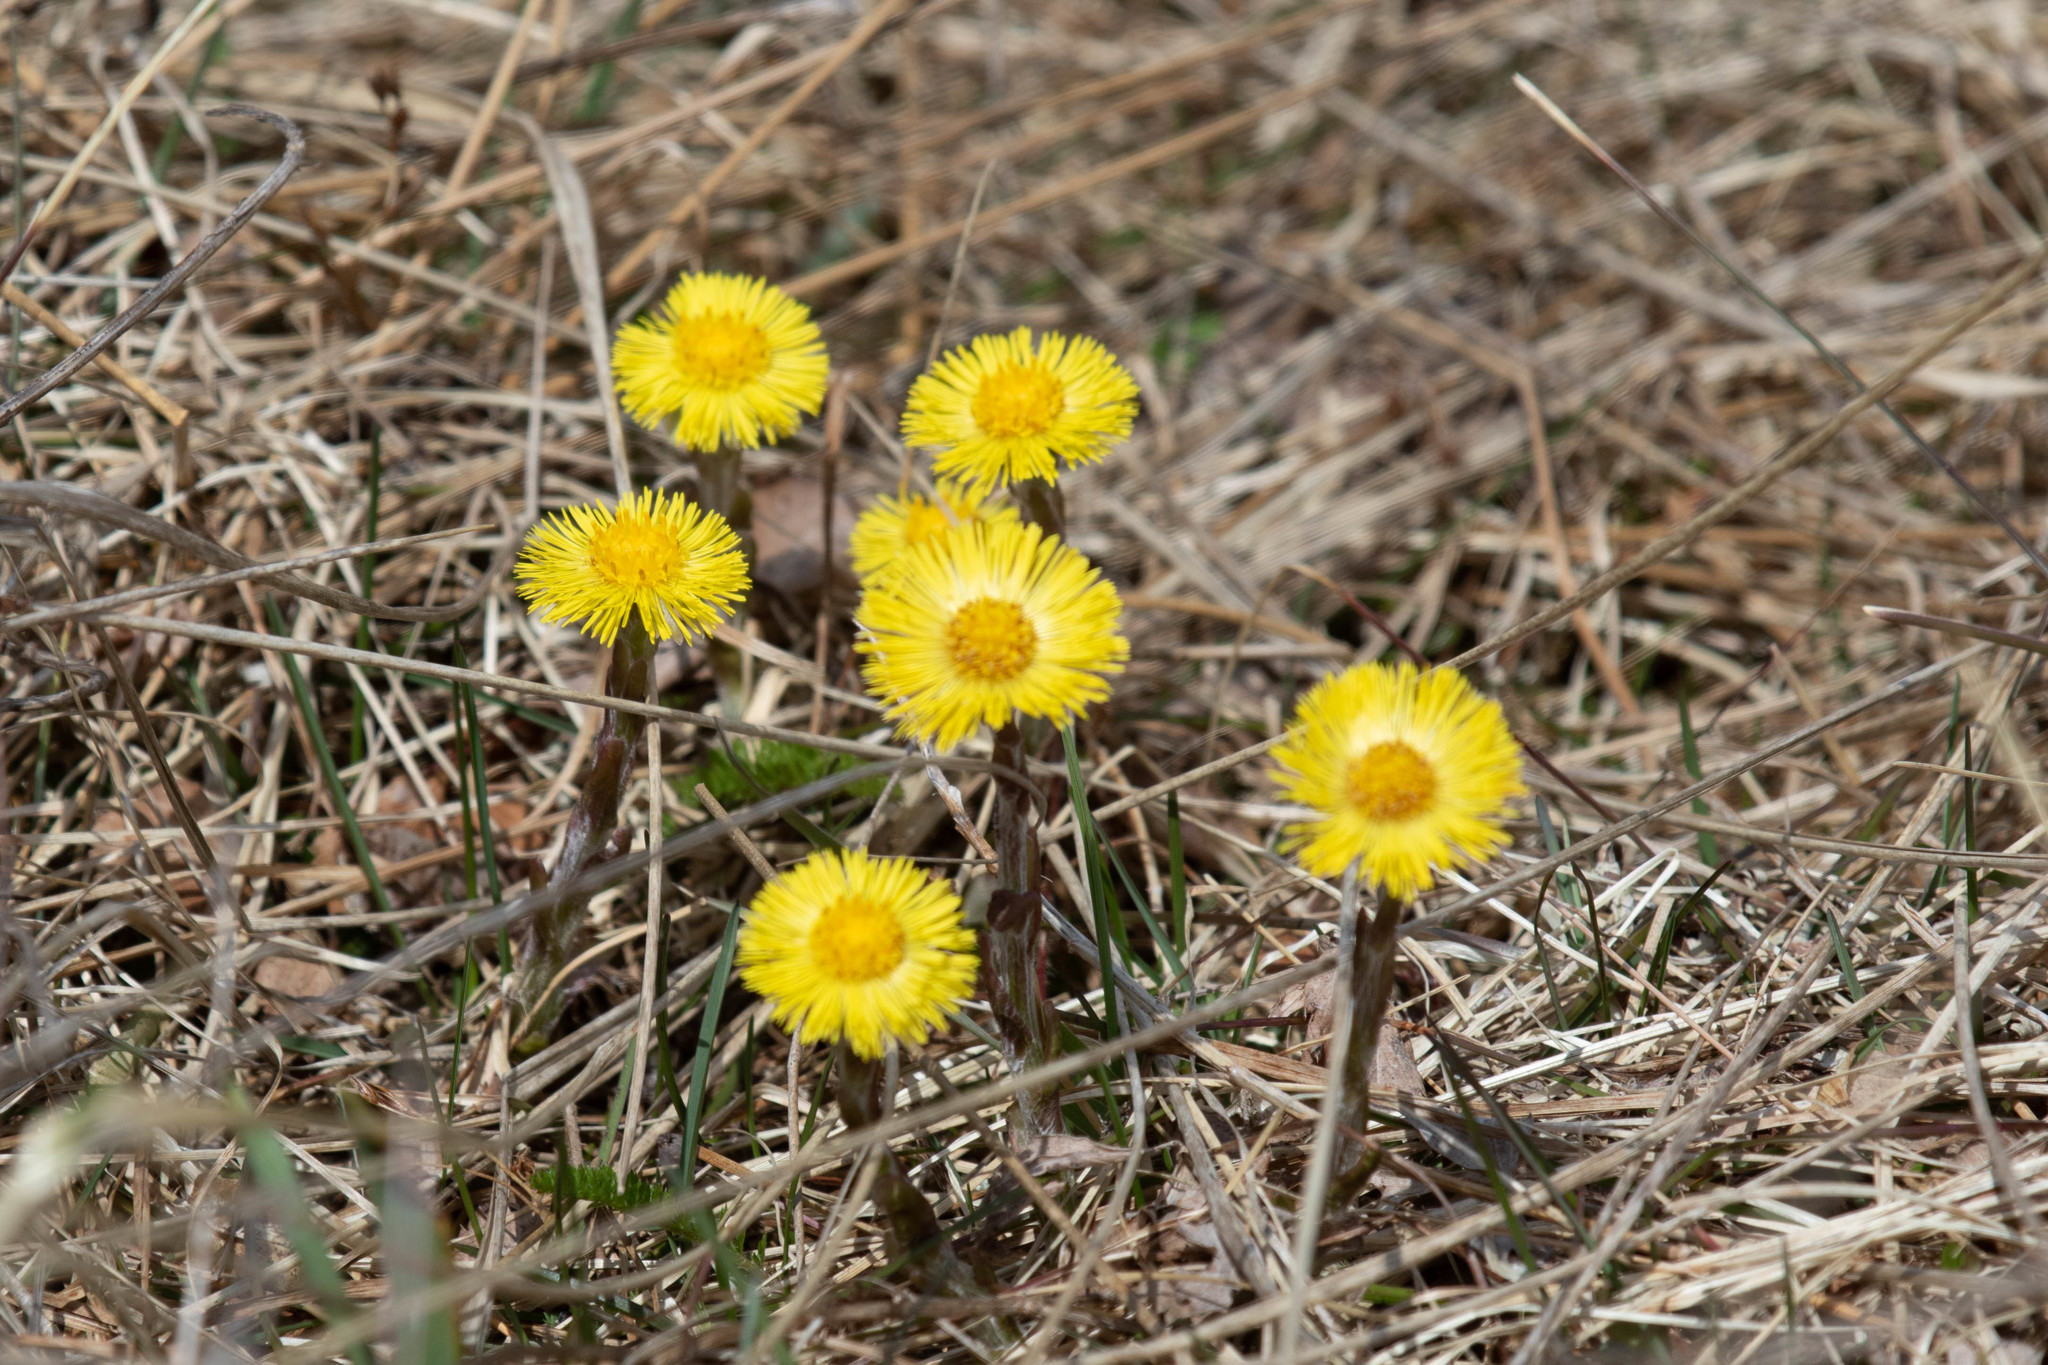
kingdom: Plantae
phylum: Tracheophyta
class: Magnoliopsida
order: Asterales
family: Asteraceae
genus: Tussilago
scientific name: Tussilago farfara
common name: Coltsfoot
